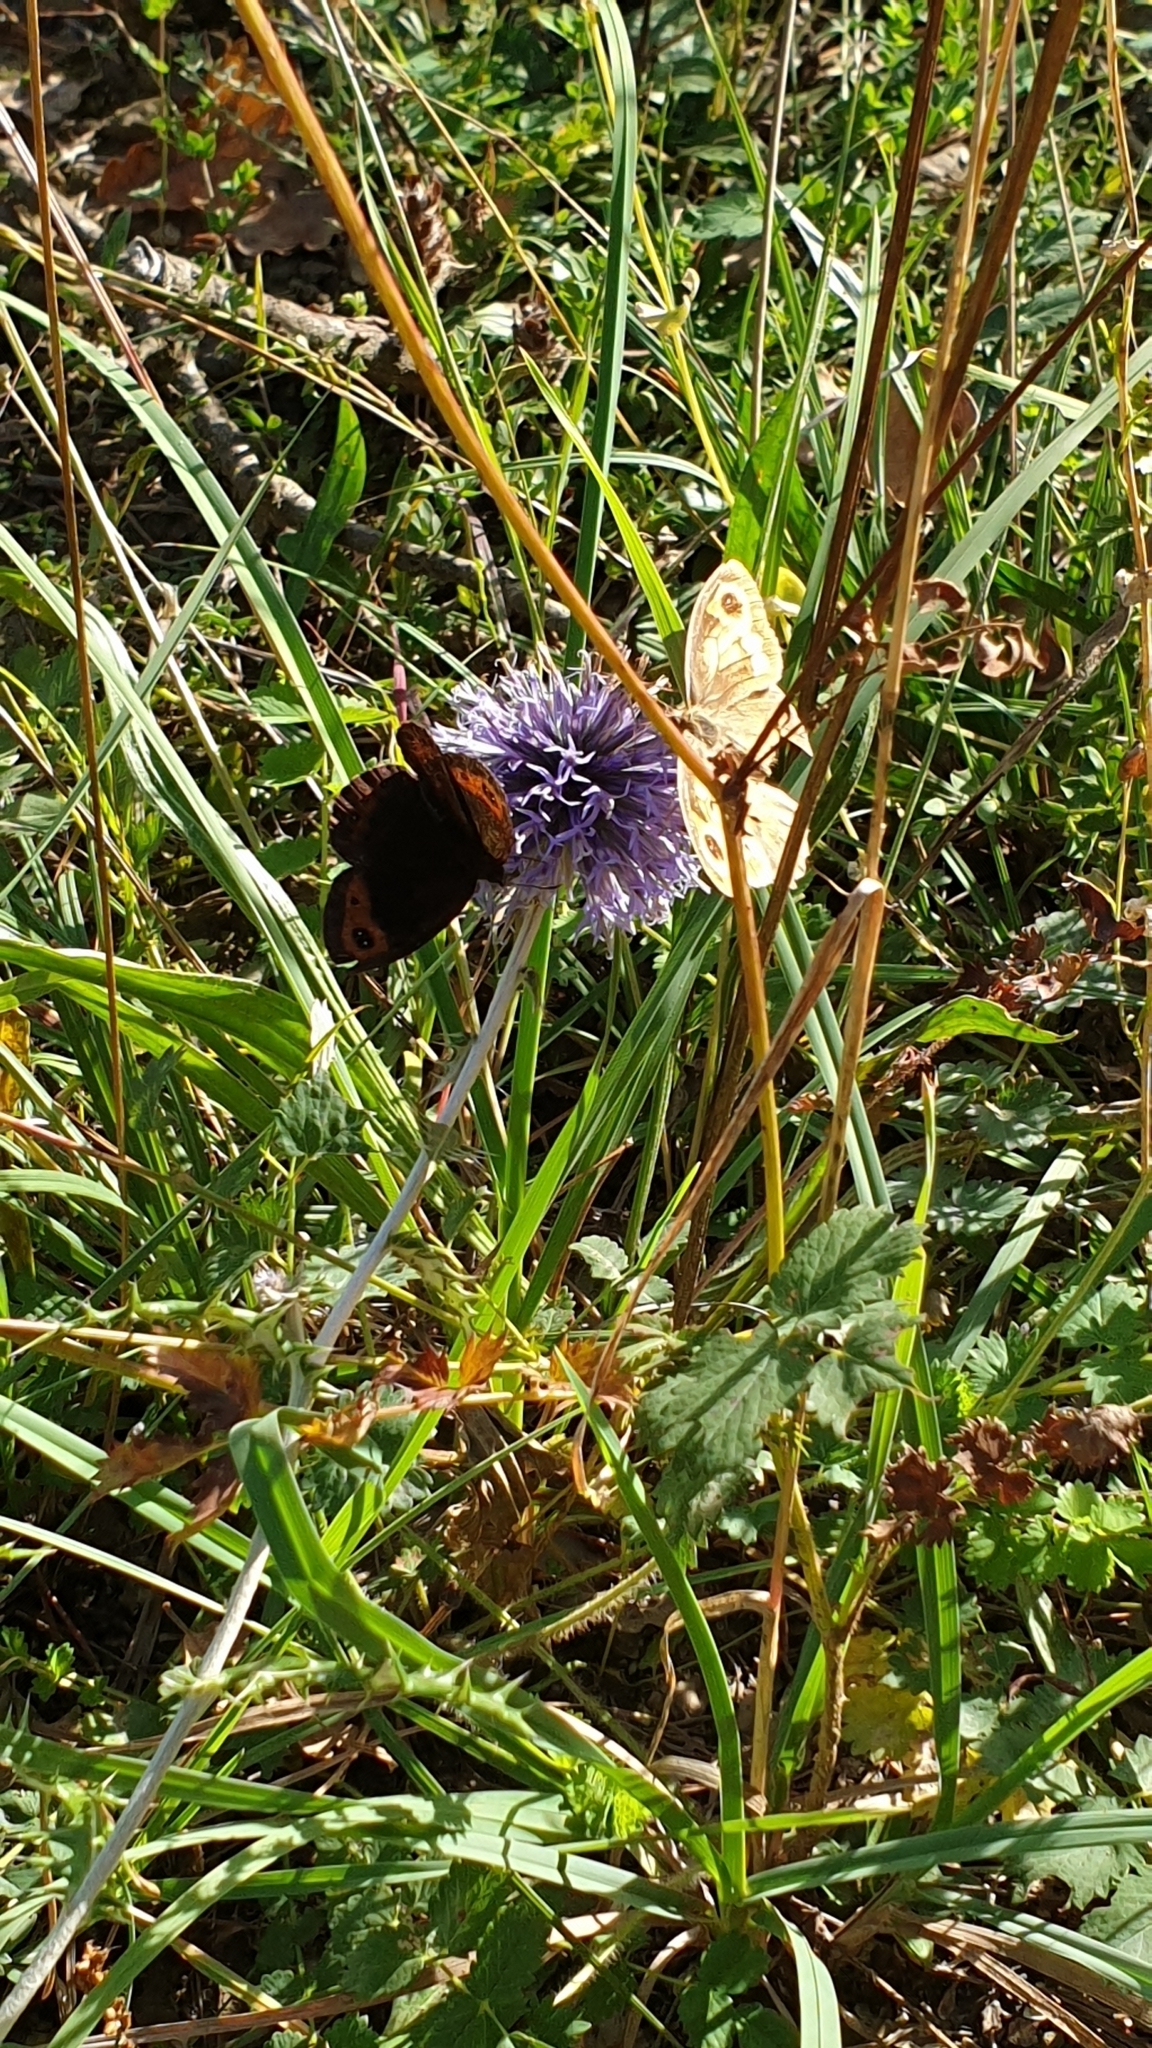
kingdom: Animalia
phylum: Arthropoda
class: Insecta
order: Lepidoptera
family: Nymphalidae
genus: Erebia
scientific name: Erebia neoridas
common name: Autumn ringlet
